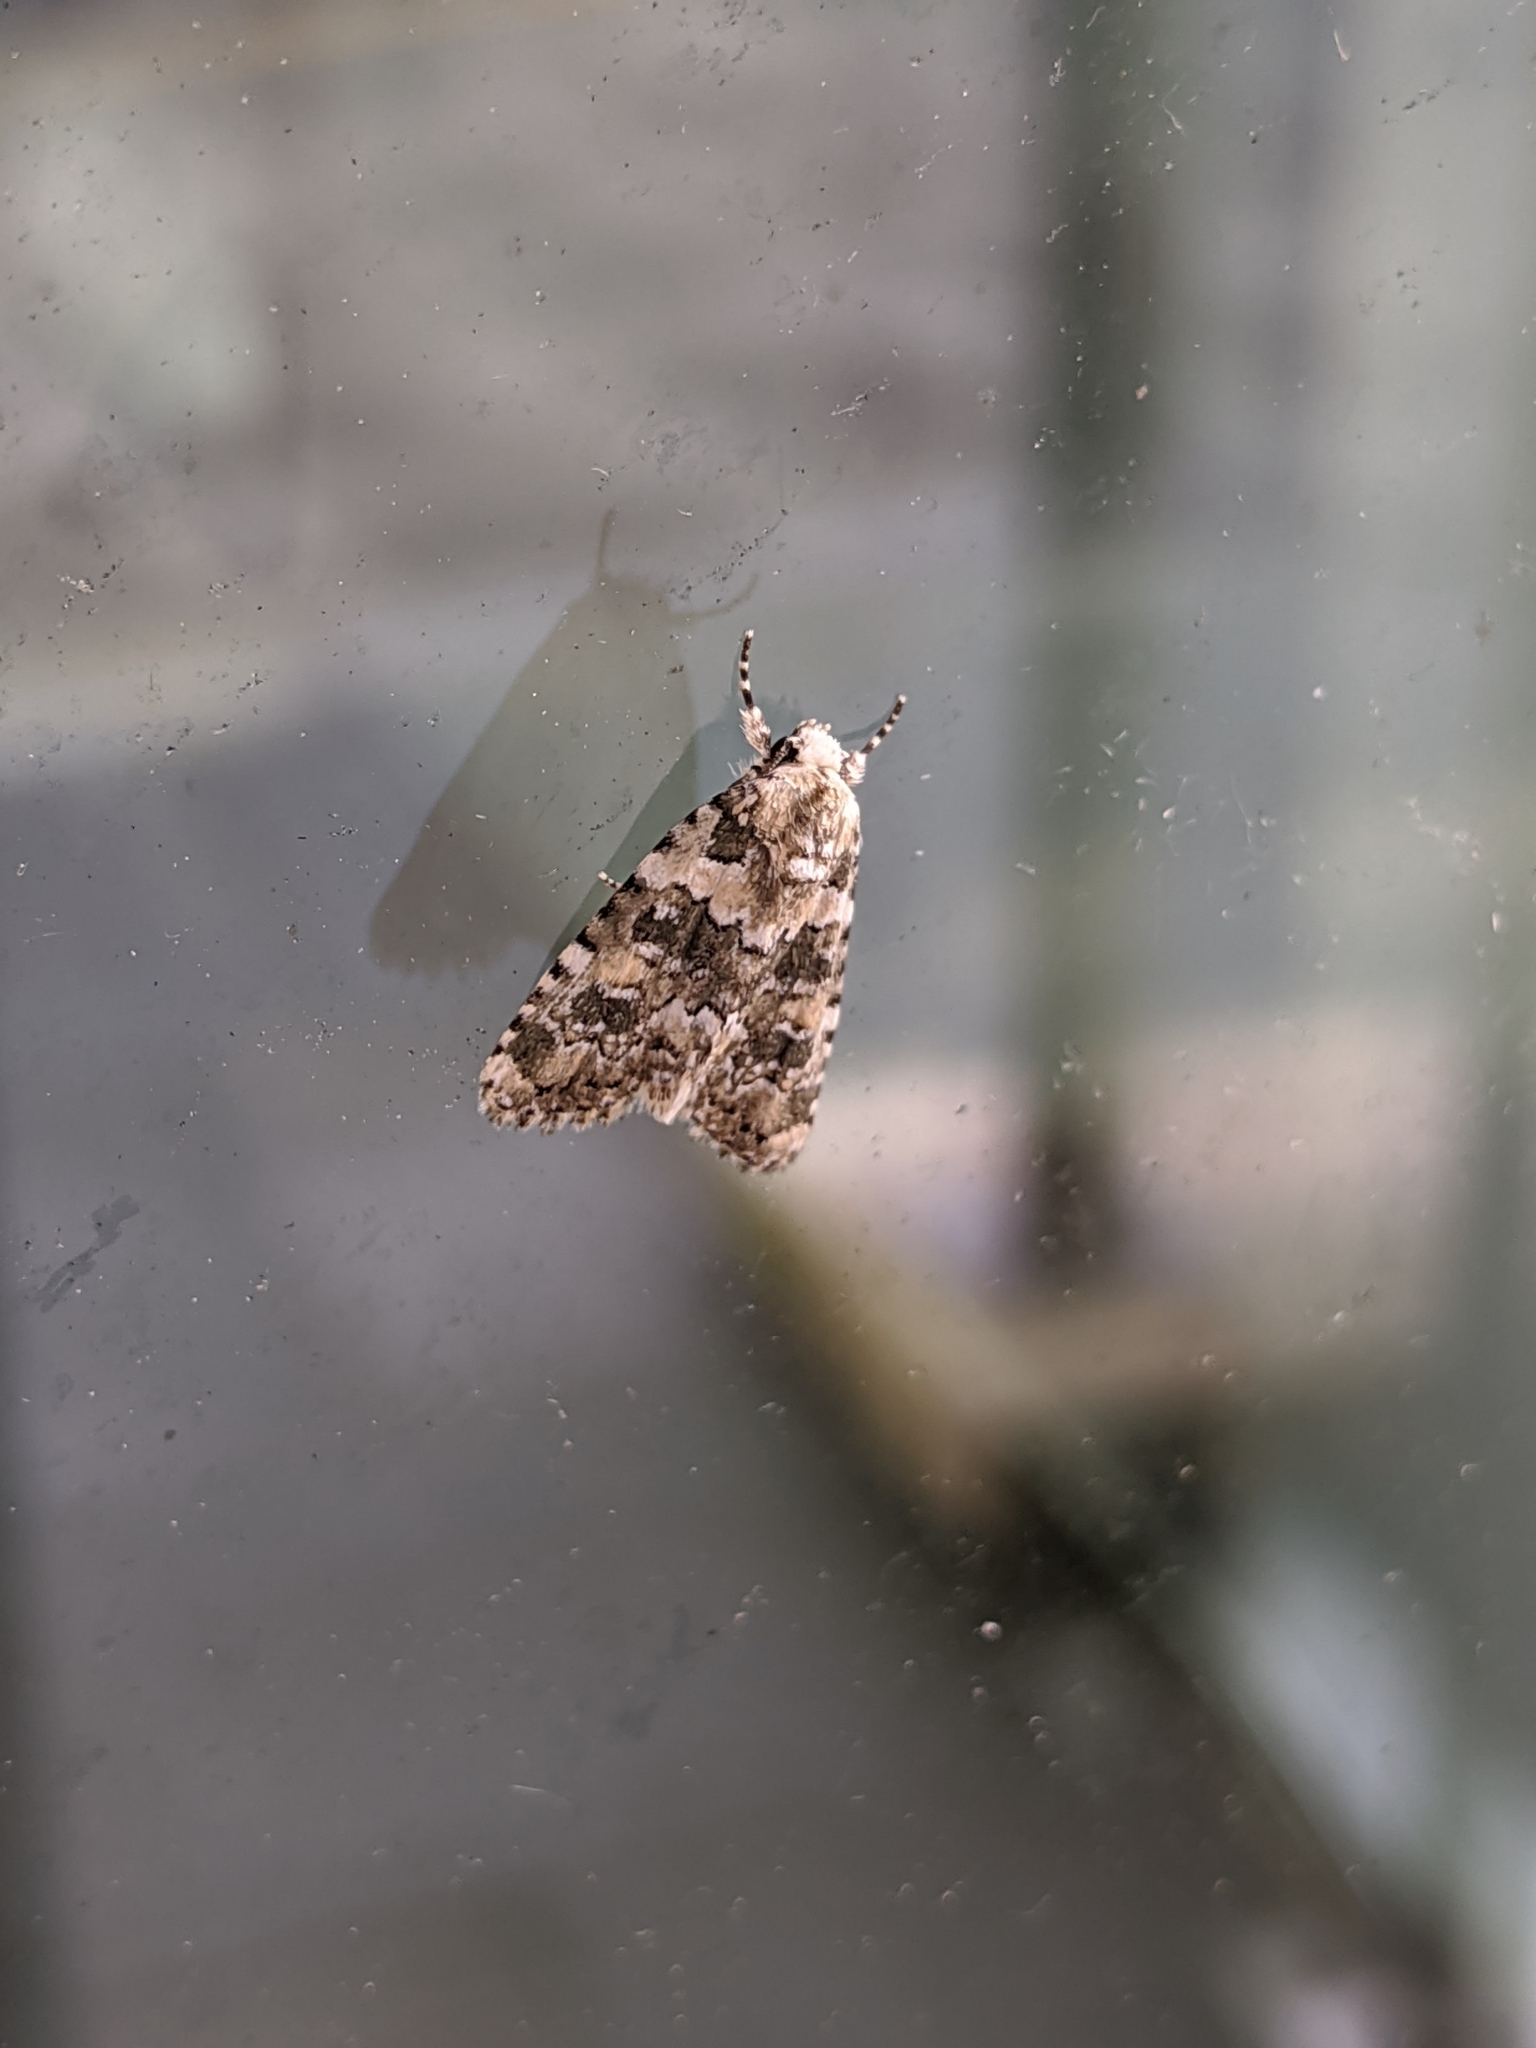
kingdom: Animalia
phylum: Arthropoda
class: Insecta
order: Lepidoptera
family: Noctuidae
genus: Bryophila
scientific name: Bryophila domestica
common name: Marbled beauty
